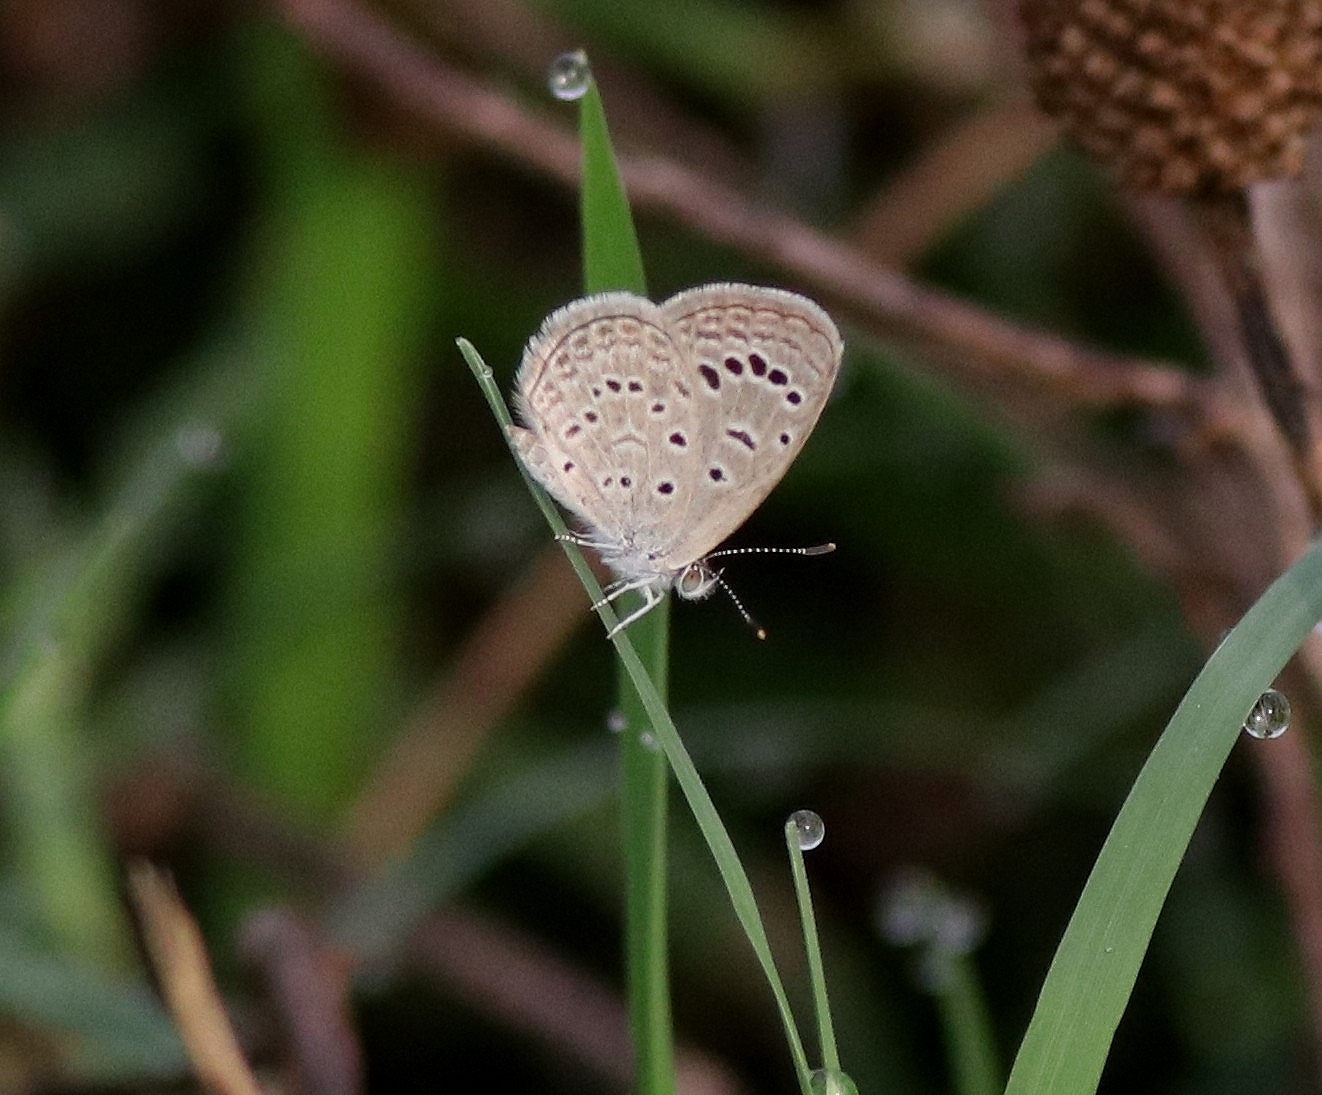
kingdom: Animalia
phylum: Arthropoda
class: Insecta
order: Lepidoptera
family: Lycaenidae
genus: Zizeeria
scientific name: Zizeeria karsandra
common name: Dark grass blue
